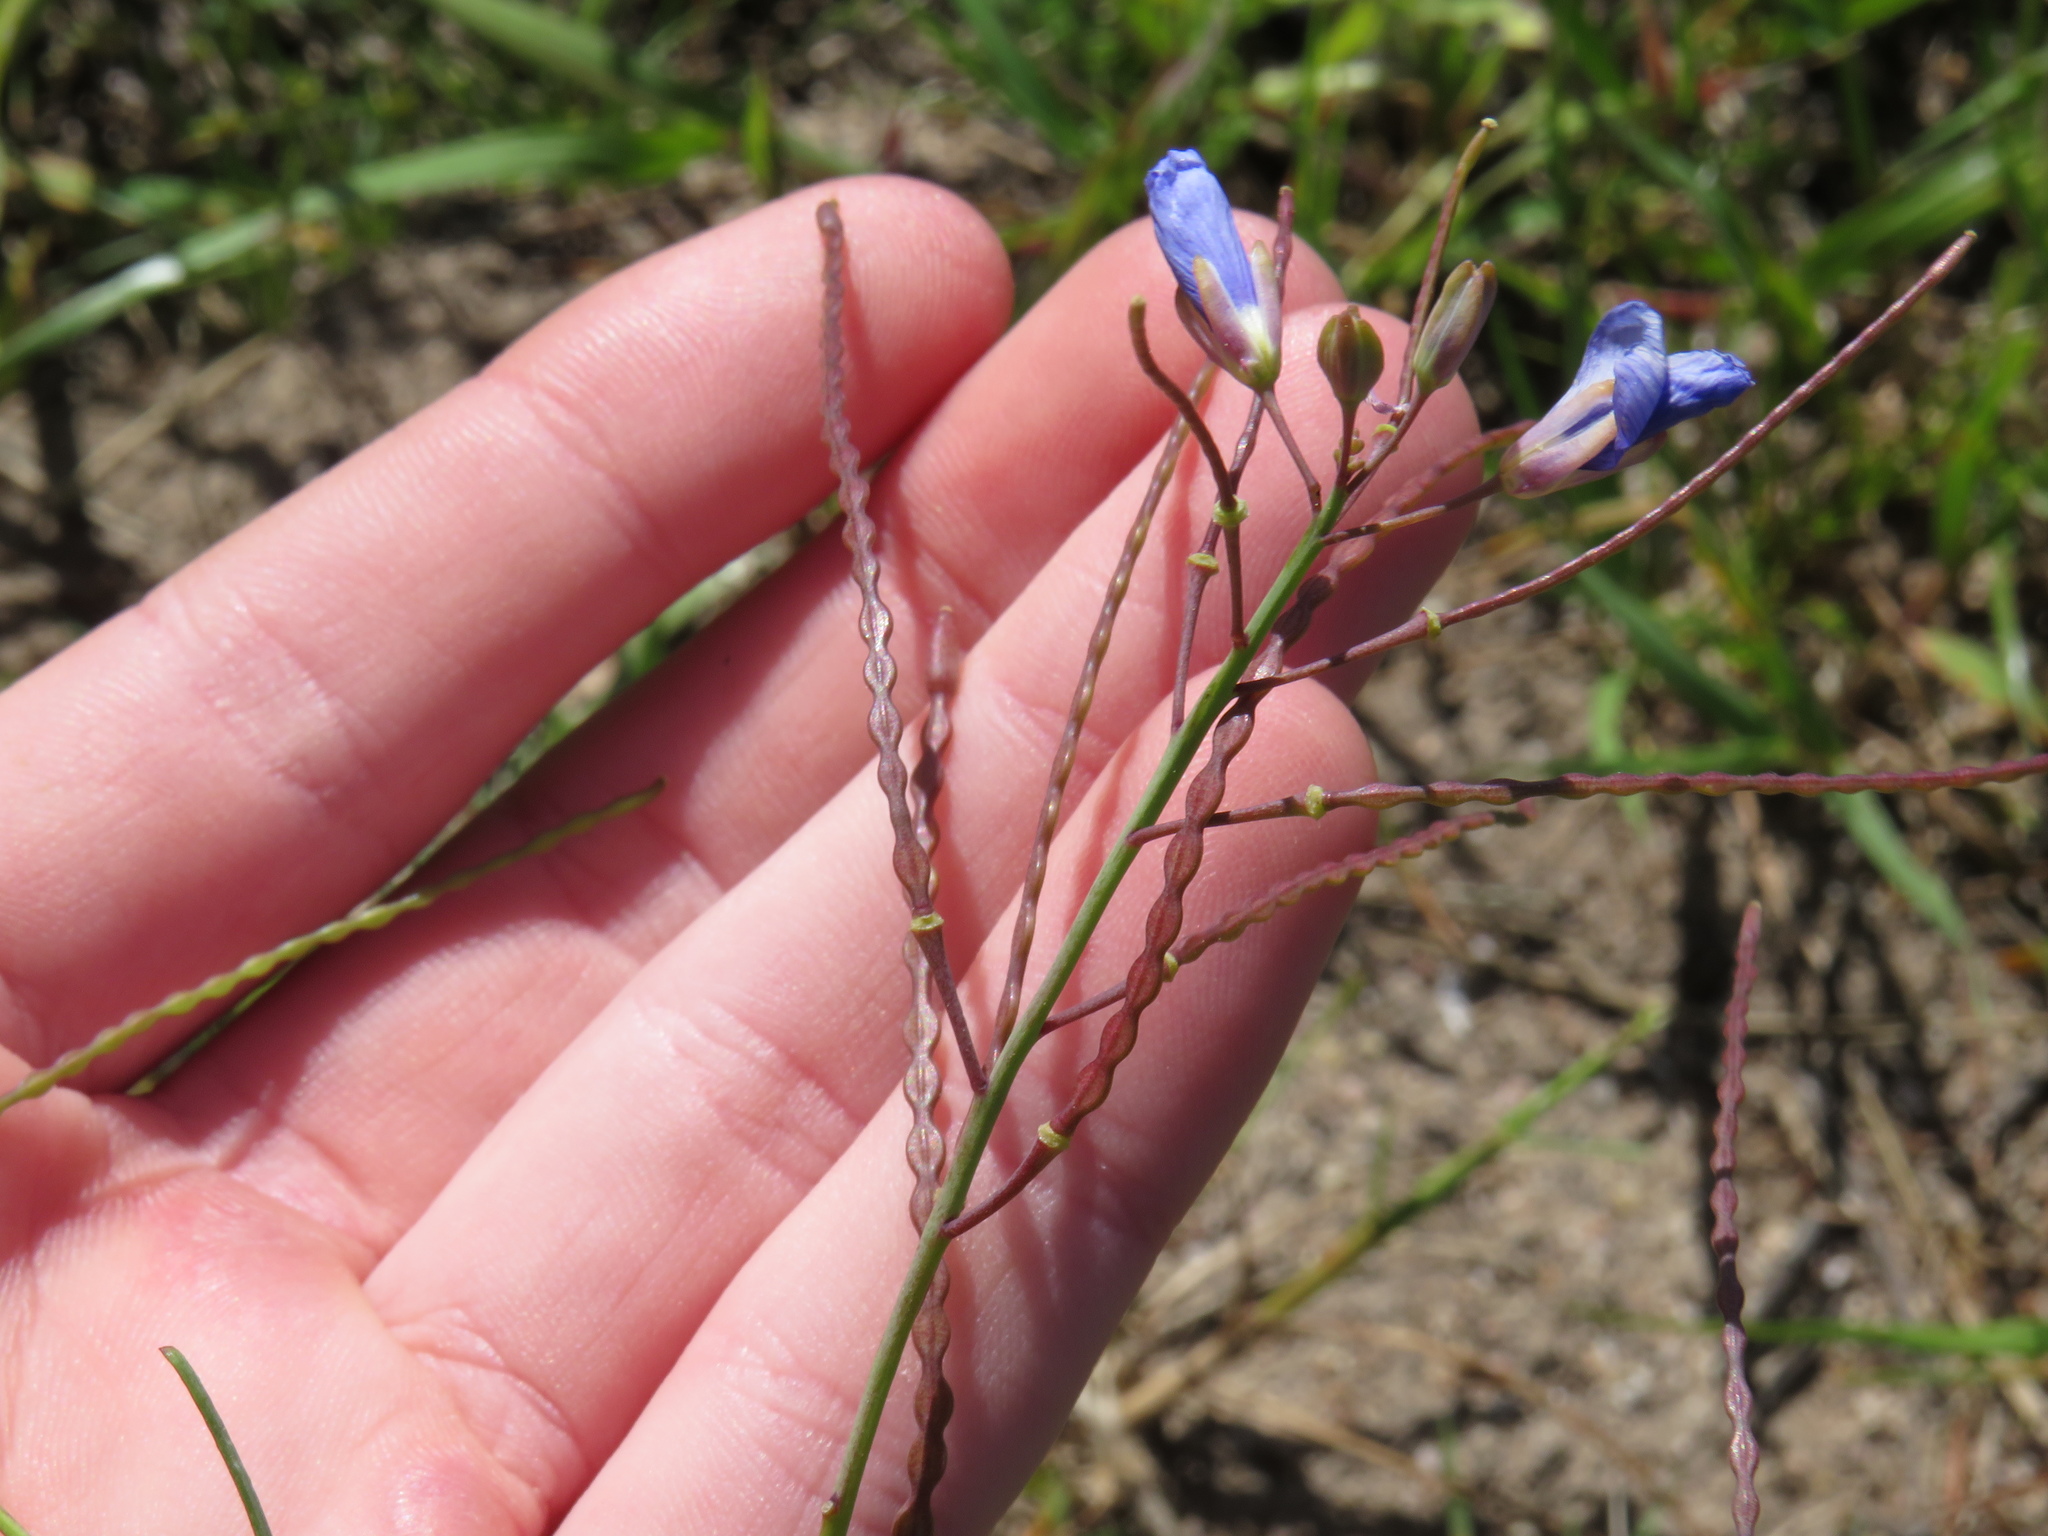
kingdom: Plantae
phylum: Tracheophyta
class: Magnoliopsida
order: Brassicales
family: Brassicaceae
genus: Heliophila
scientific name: Heliophila coronopifolia
